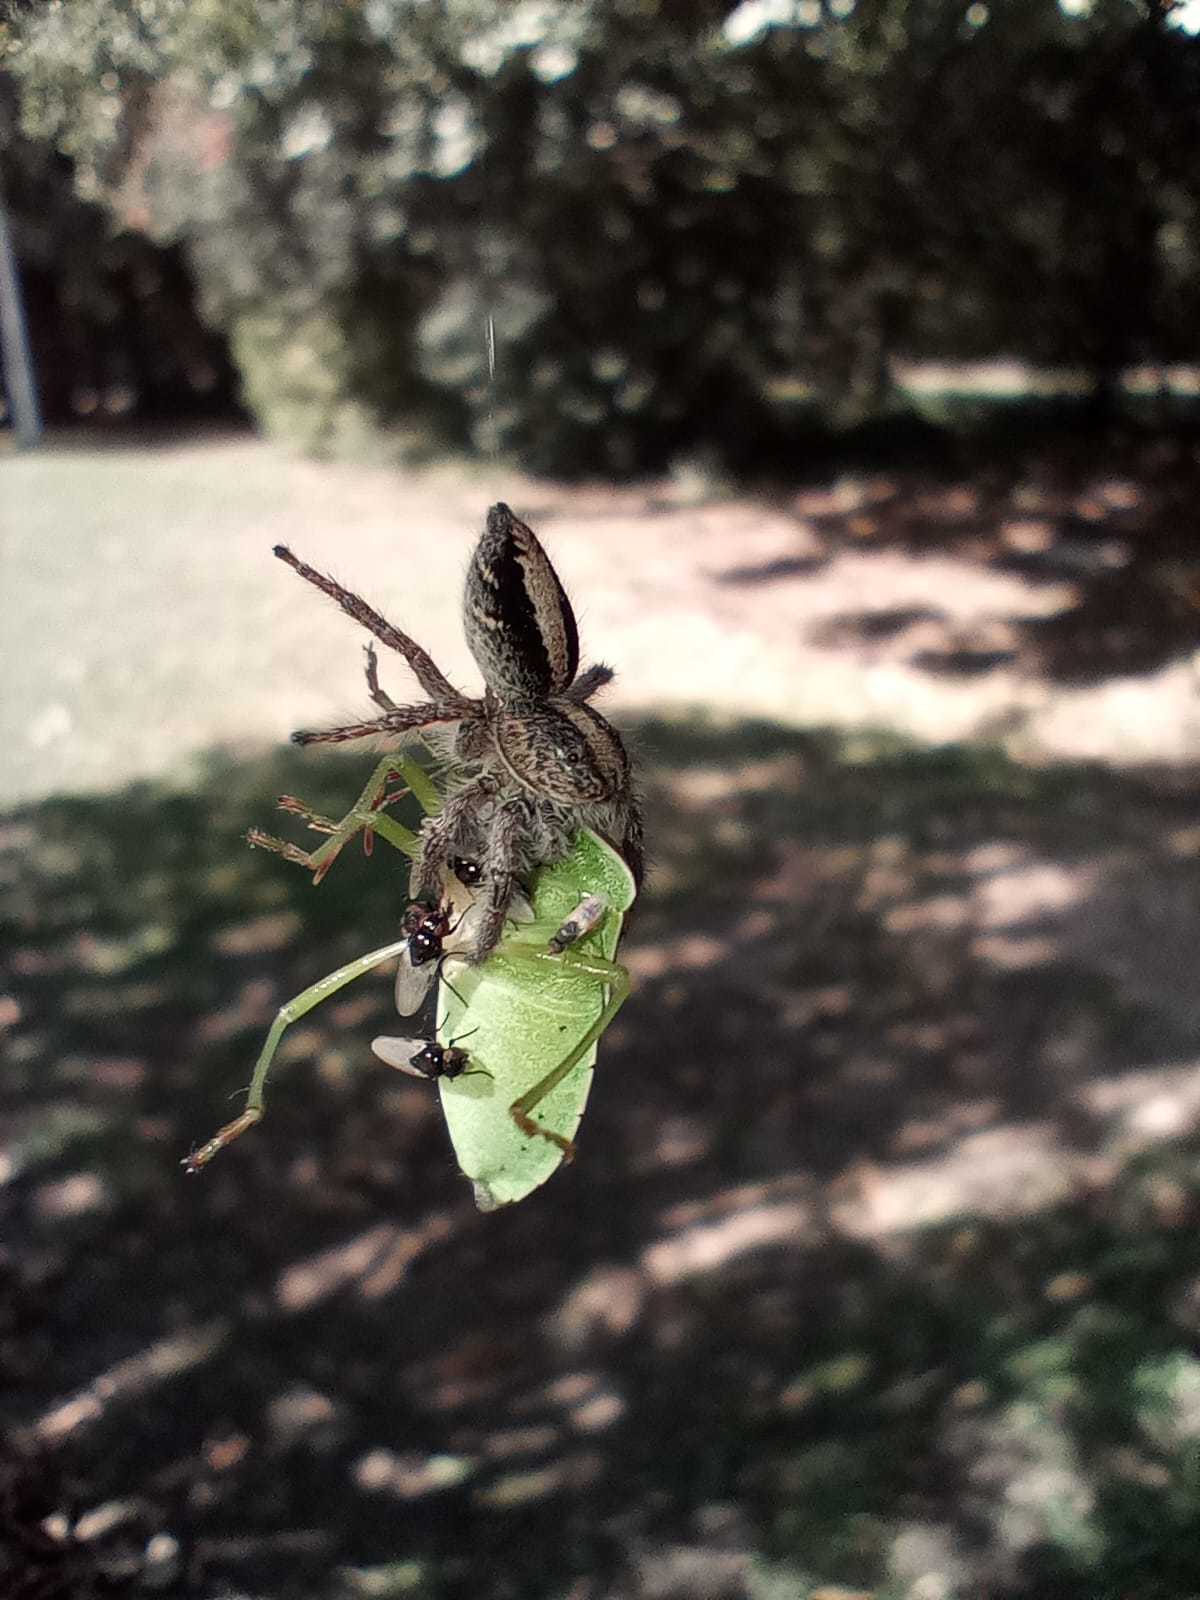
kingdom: Animalia
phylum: Arthropoda
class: Arachnida
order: Araneae
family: Salticidae
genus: Megafreya
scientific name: Megafreya sutrix
